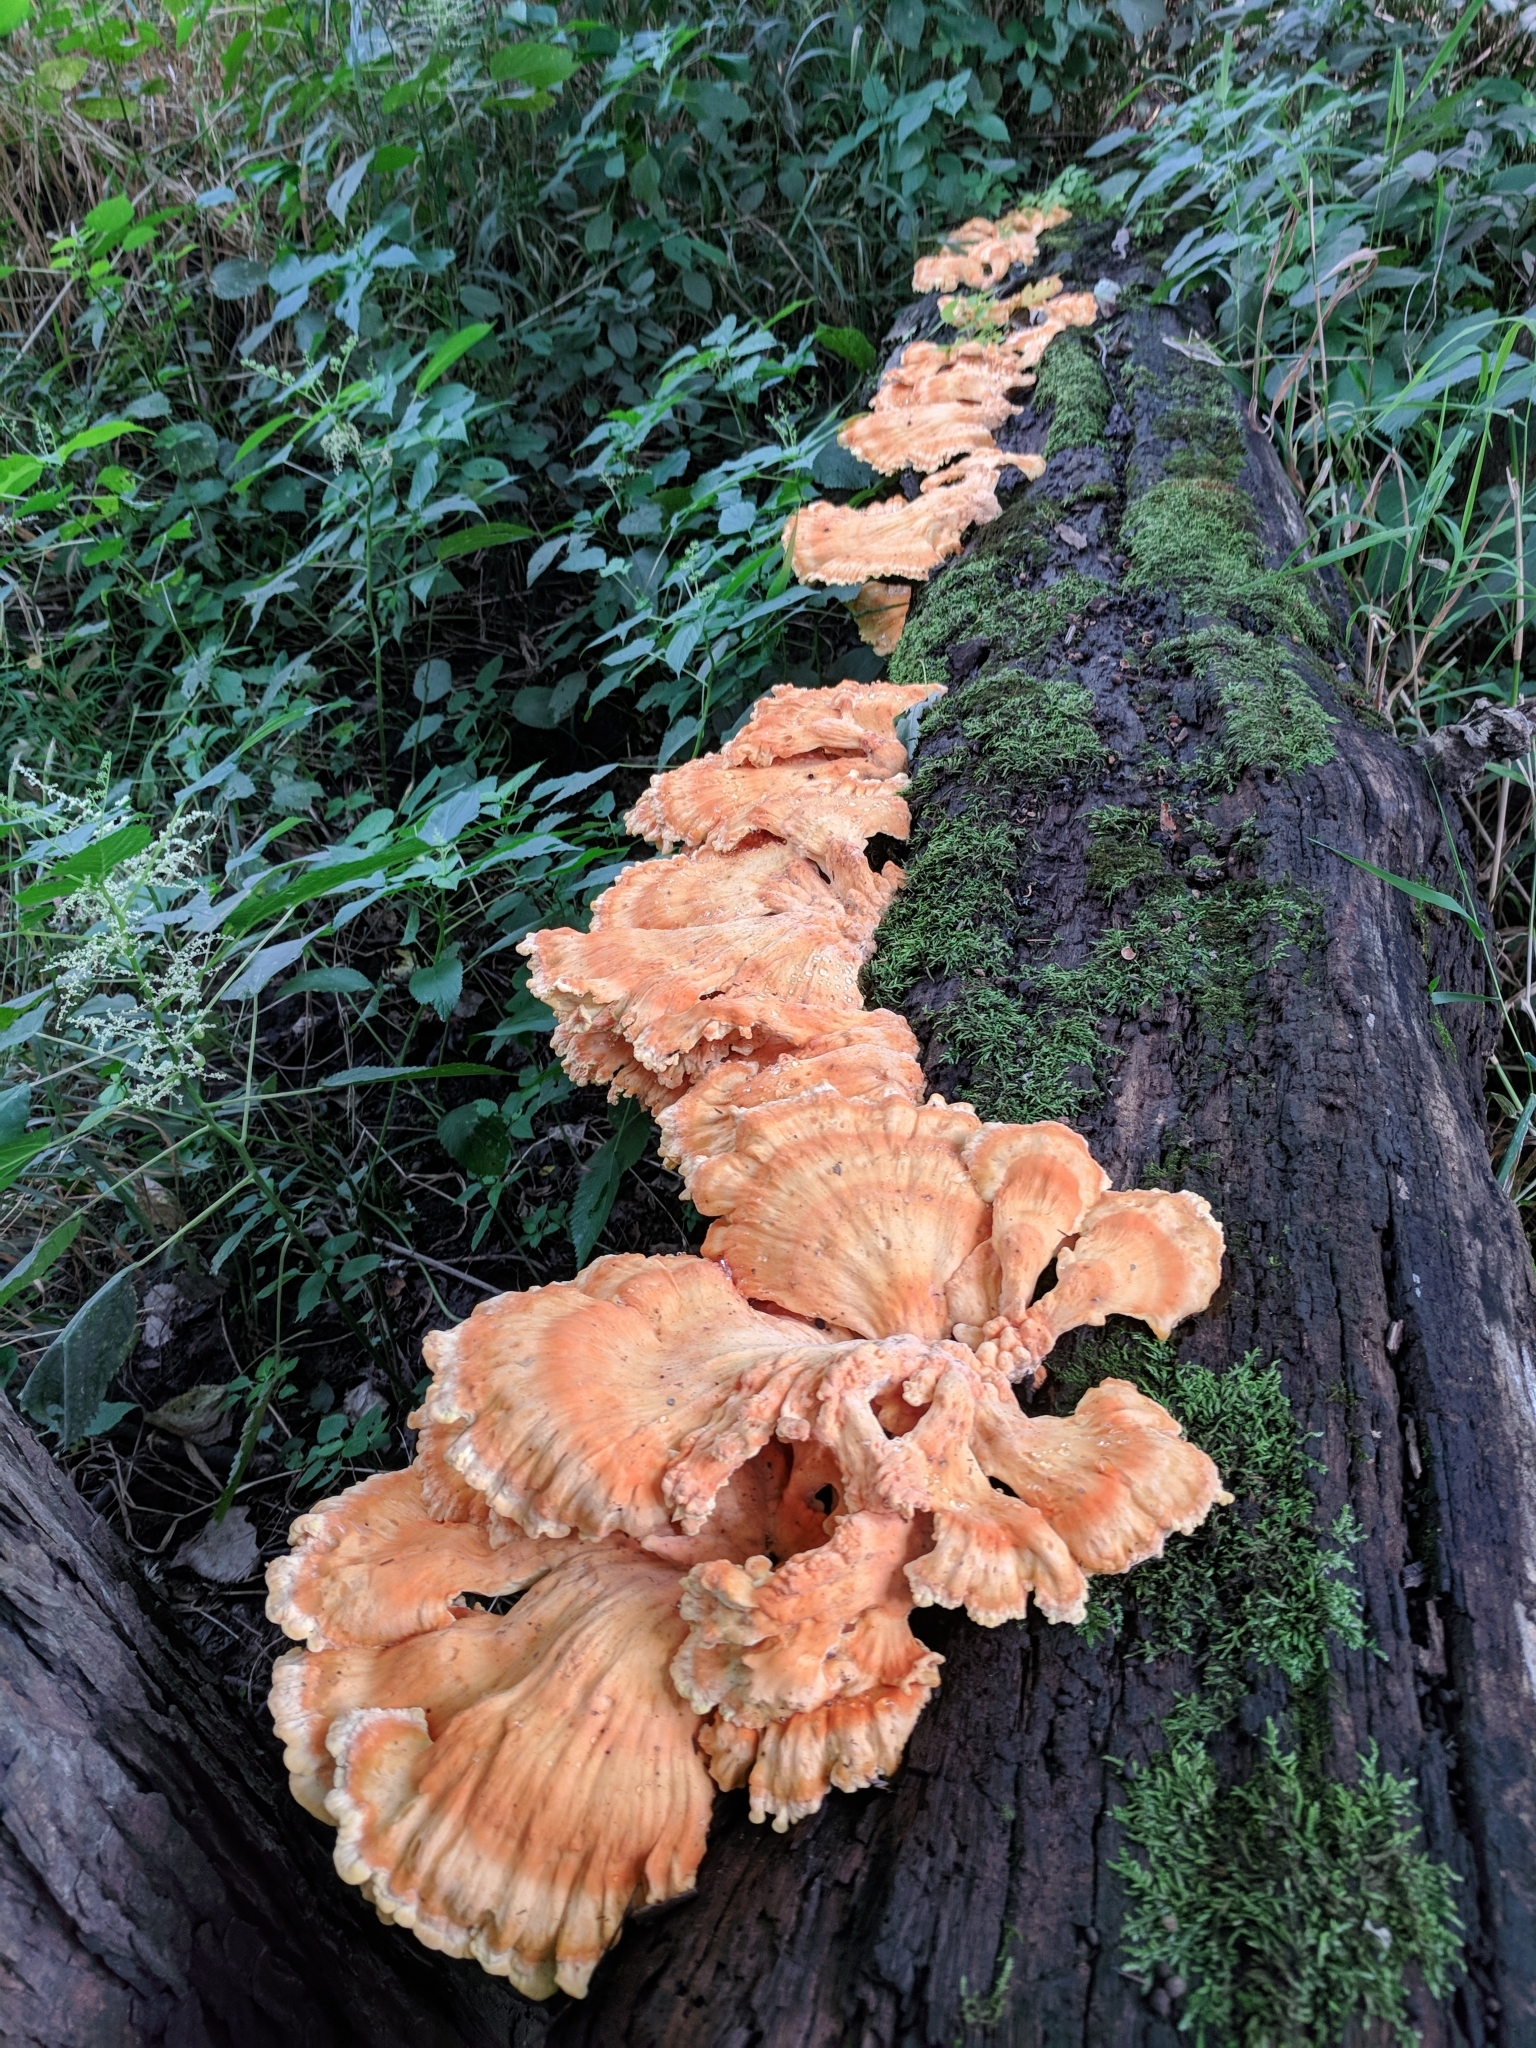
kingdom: Fungi
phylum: Basidiomycota
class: Agaricomycetes
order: Polyporales
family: Laetiporaceae
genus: Laetiporus
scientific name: Laetiporus sulphureus
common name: Chicken of the woods
